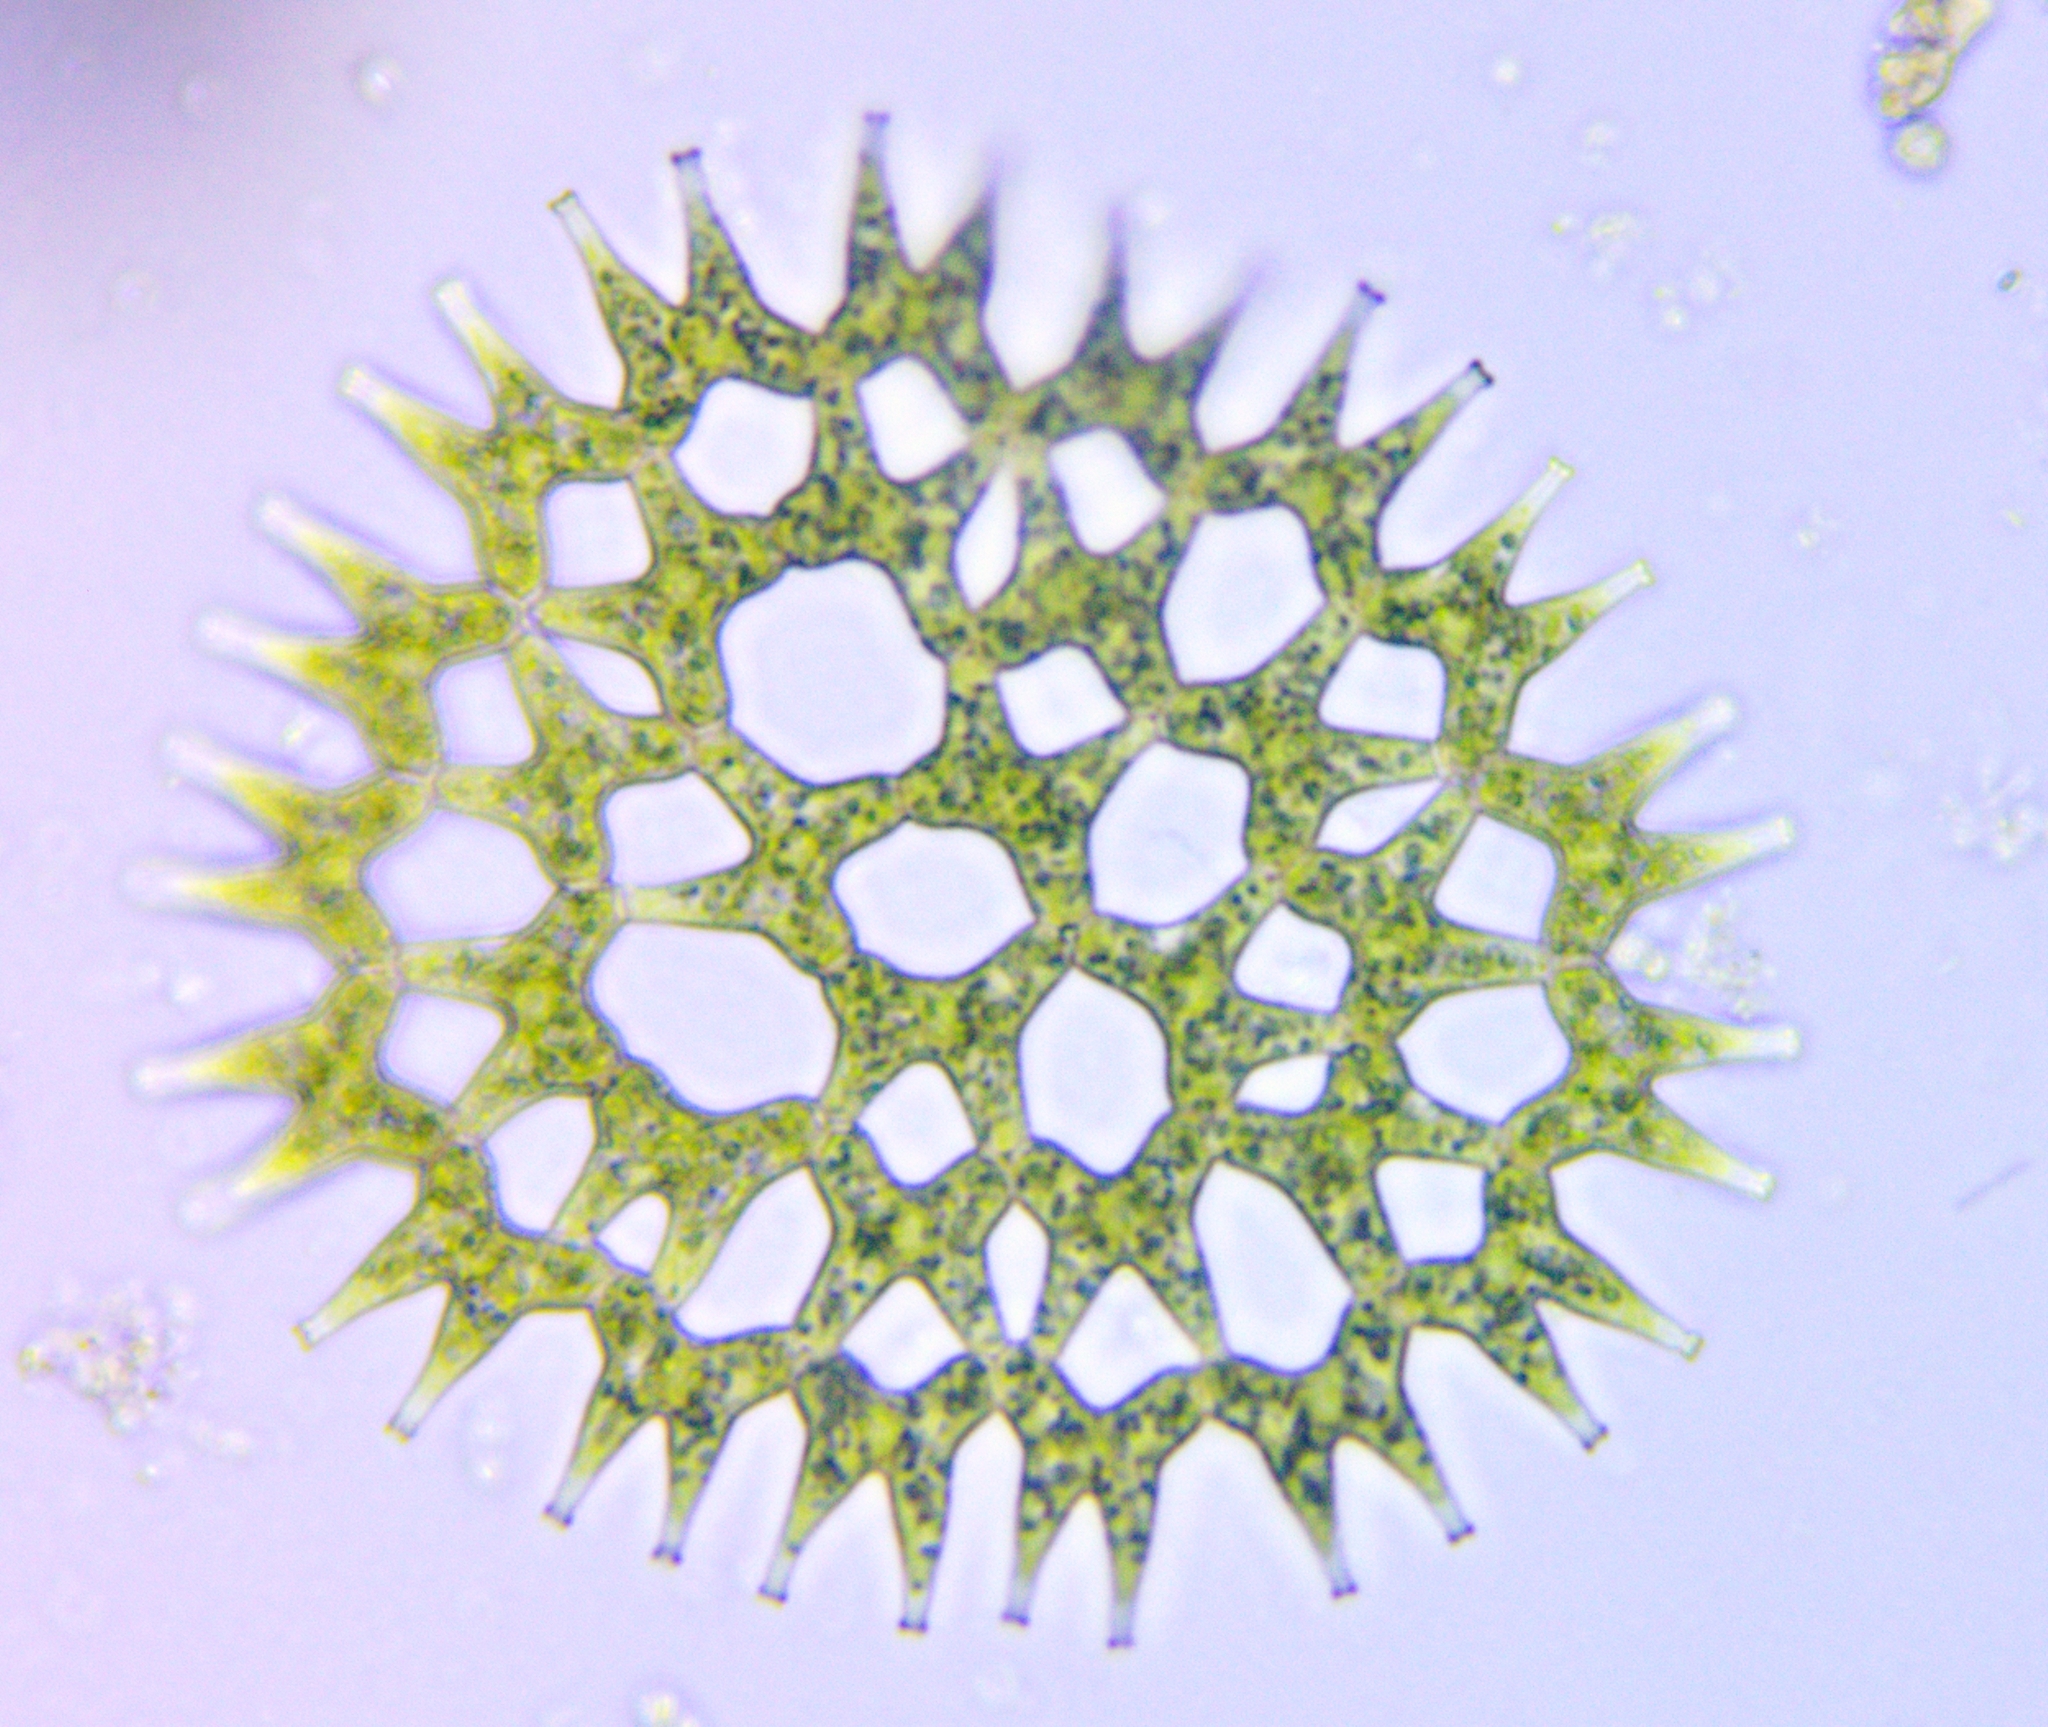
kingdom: Plantae
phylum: Chlorophyta
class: Chlorophyceae
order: Sphaeropleales
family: Hydrodictyaceae
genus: Lacunastrum
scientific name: Lacunastrum gracillimum
